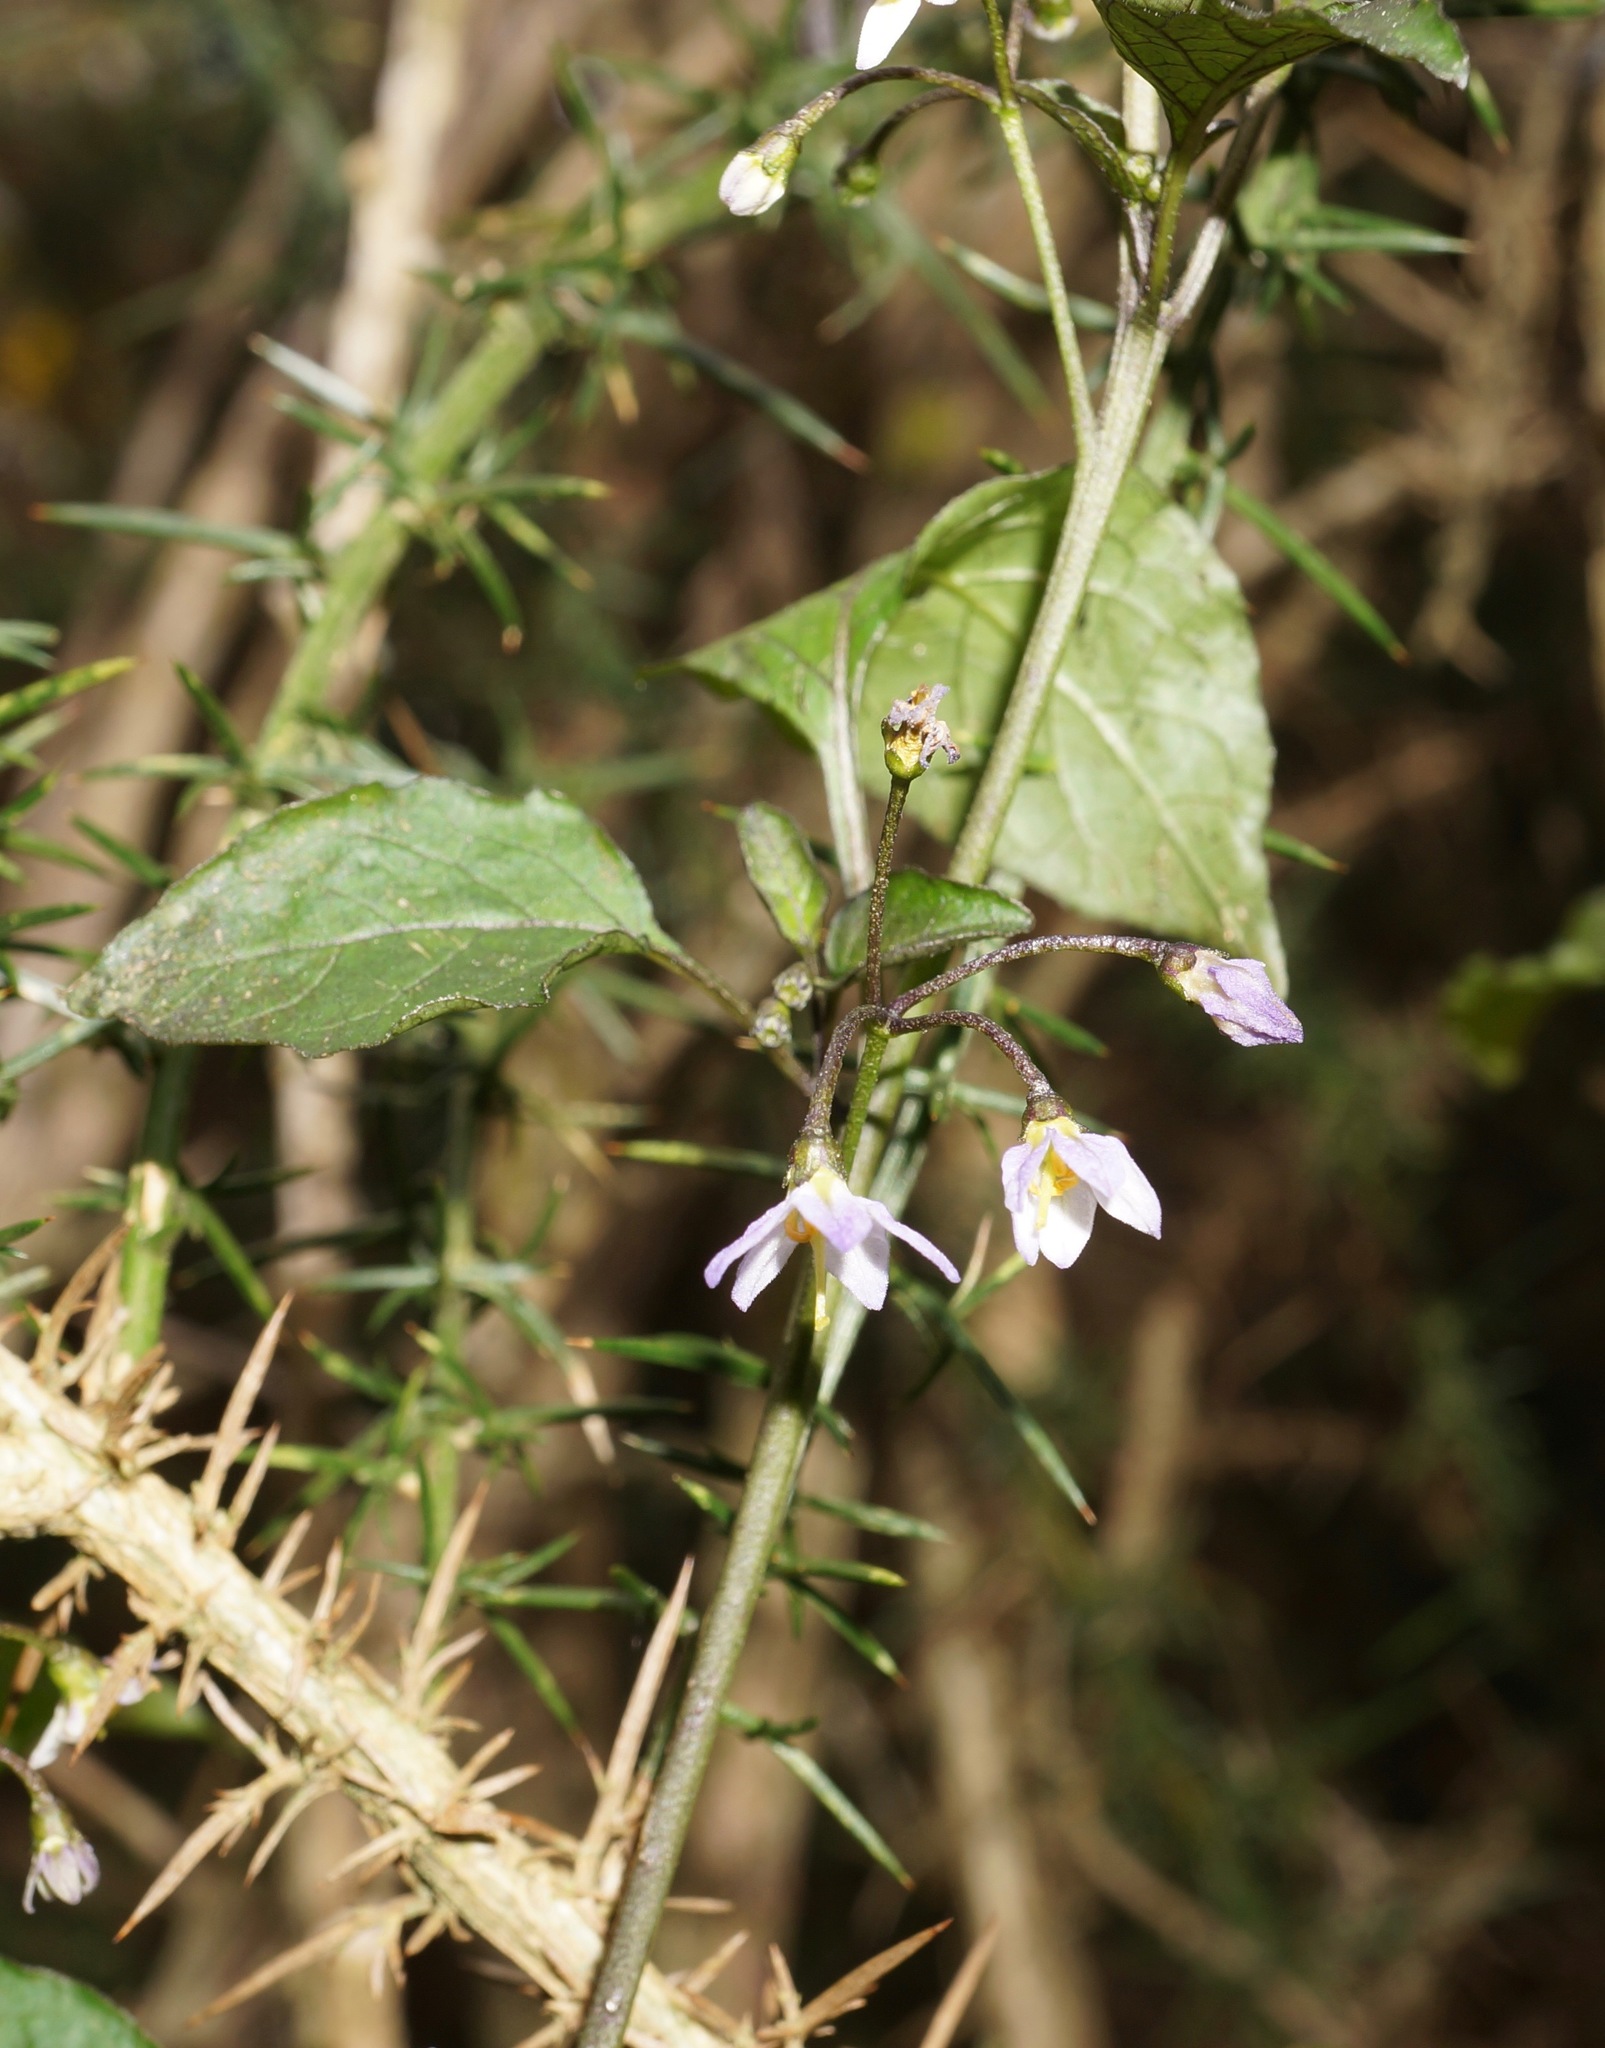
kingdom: Plantae
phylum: Tracheophyta
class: Magnoliopsida
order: Solanales
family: Solanaceae
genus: Solanum
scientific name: Solanum nigrum
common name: Black nightshade
